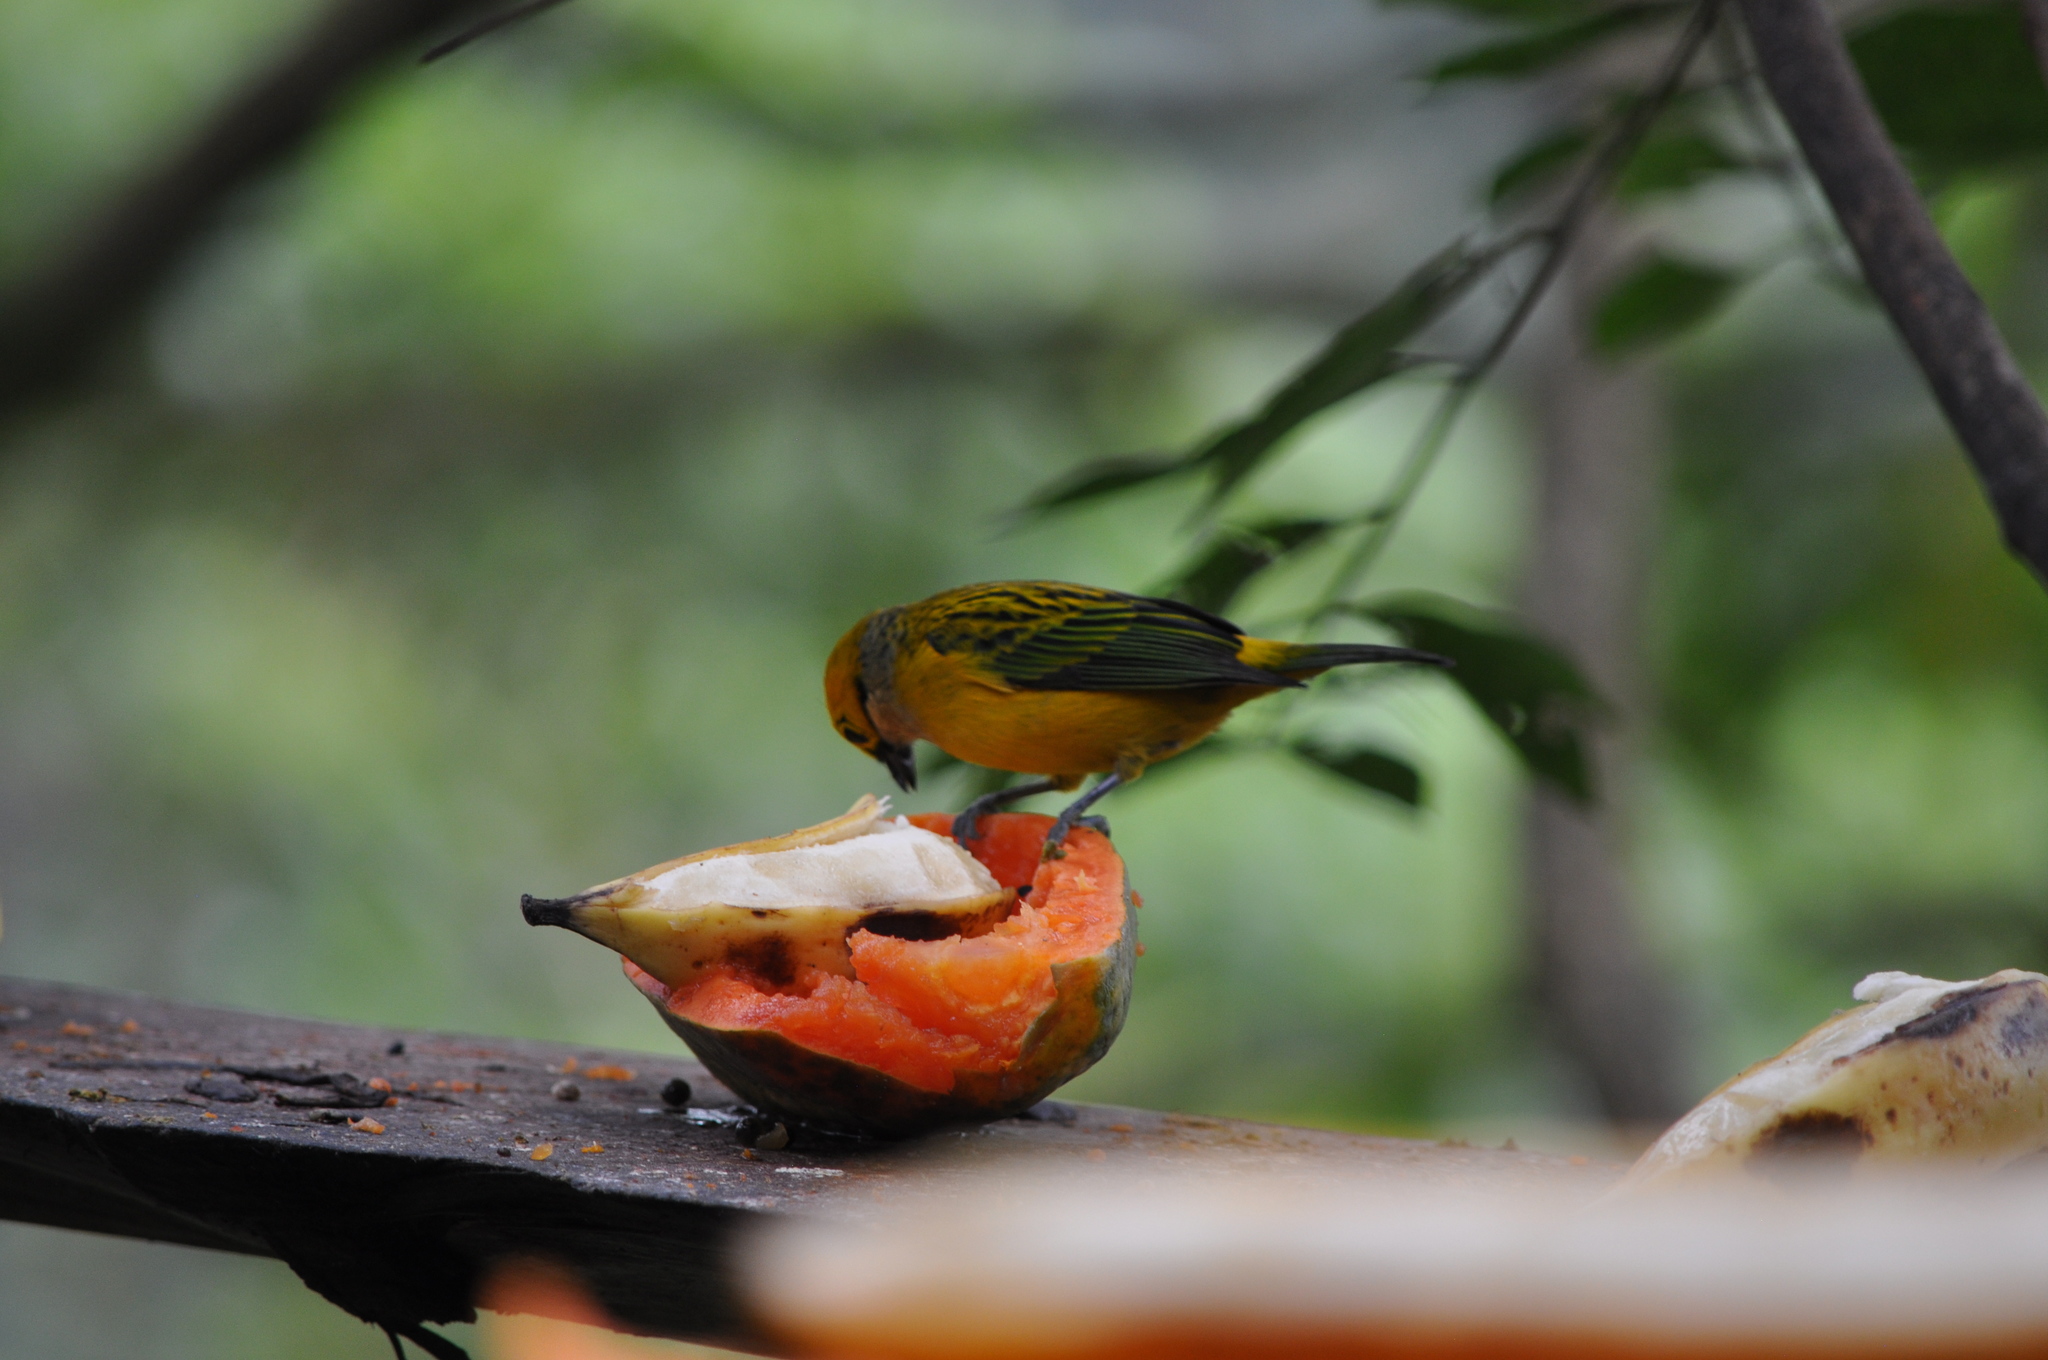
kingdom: Animalia
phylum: Chordata
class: Aves
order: Passeriformes
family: Thraupidae
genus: Tangara
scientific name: Tangara icterocephala
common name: Silver-throated tanager
